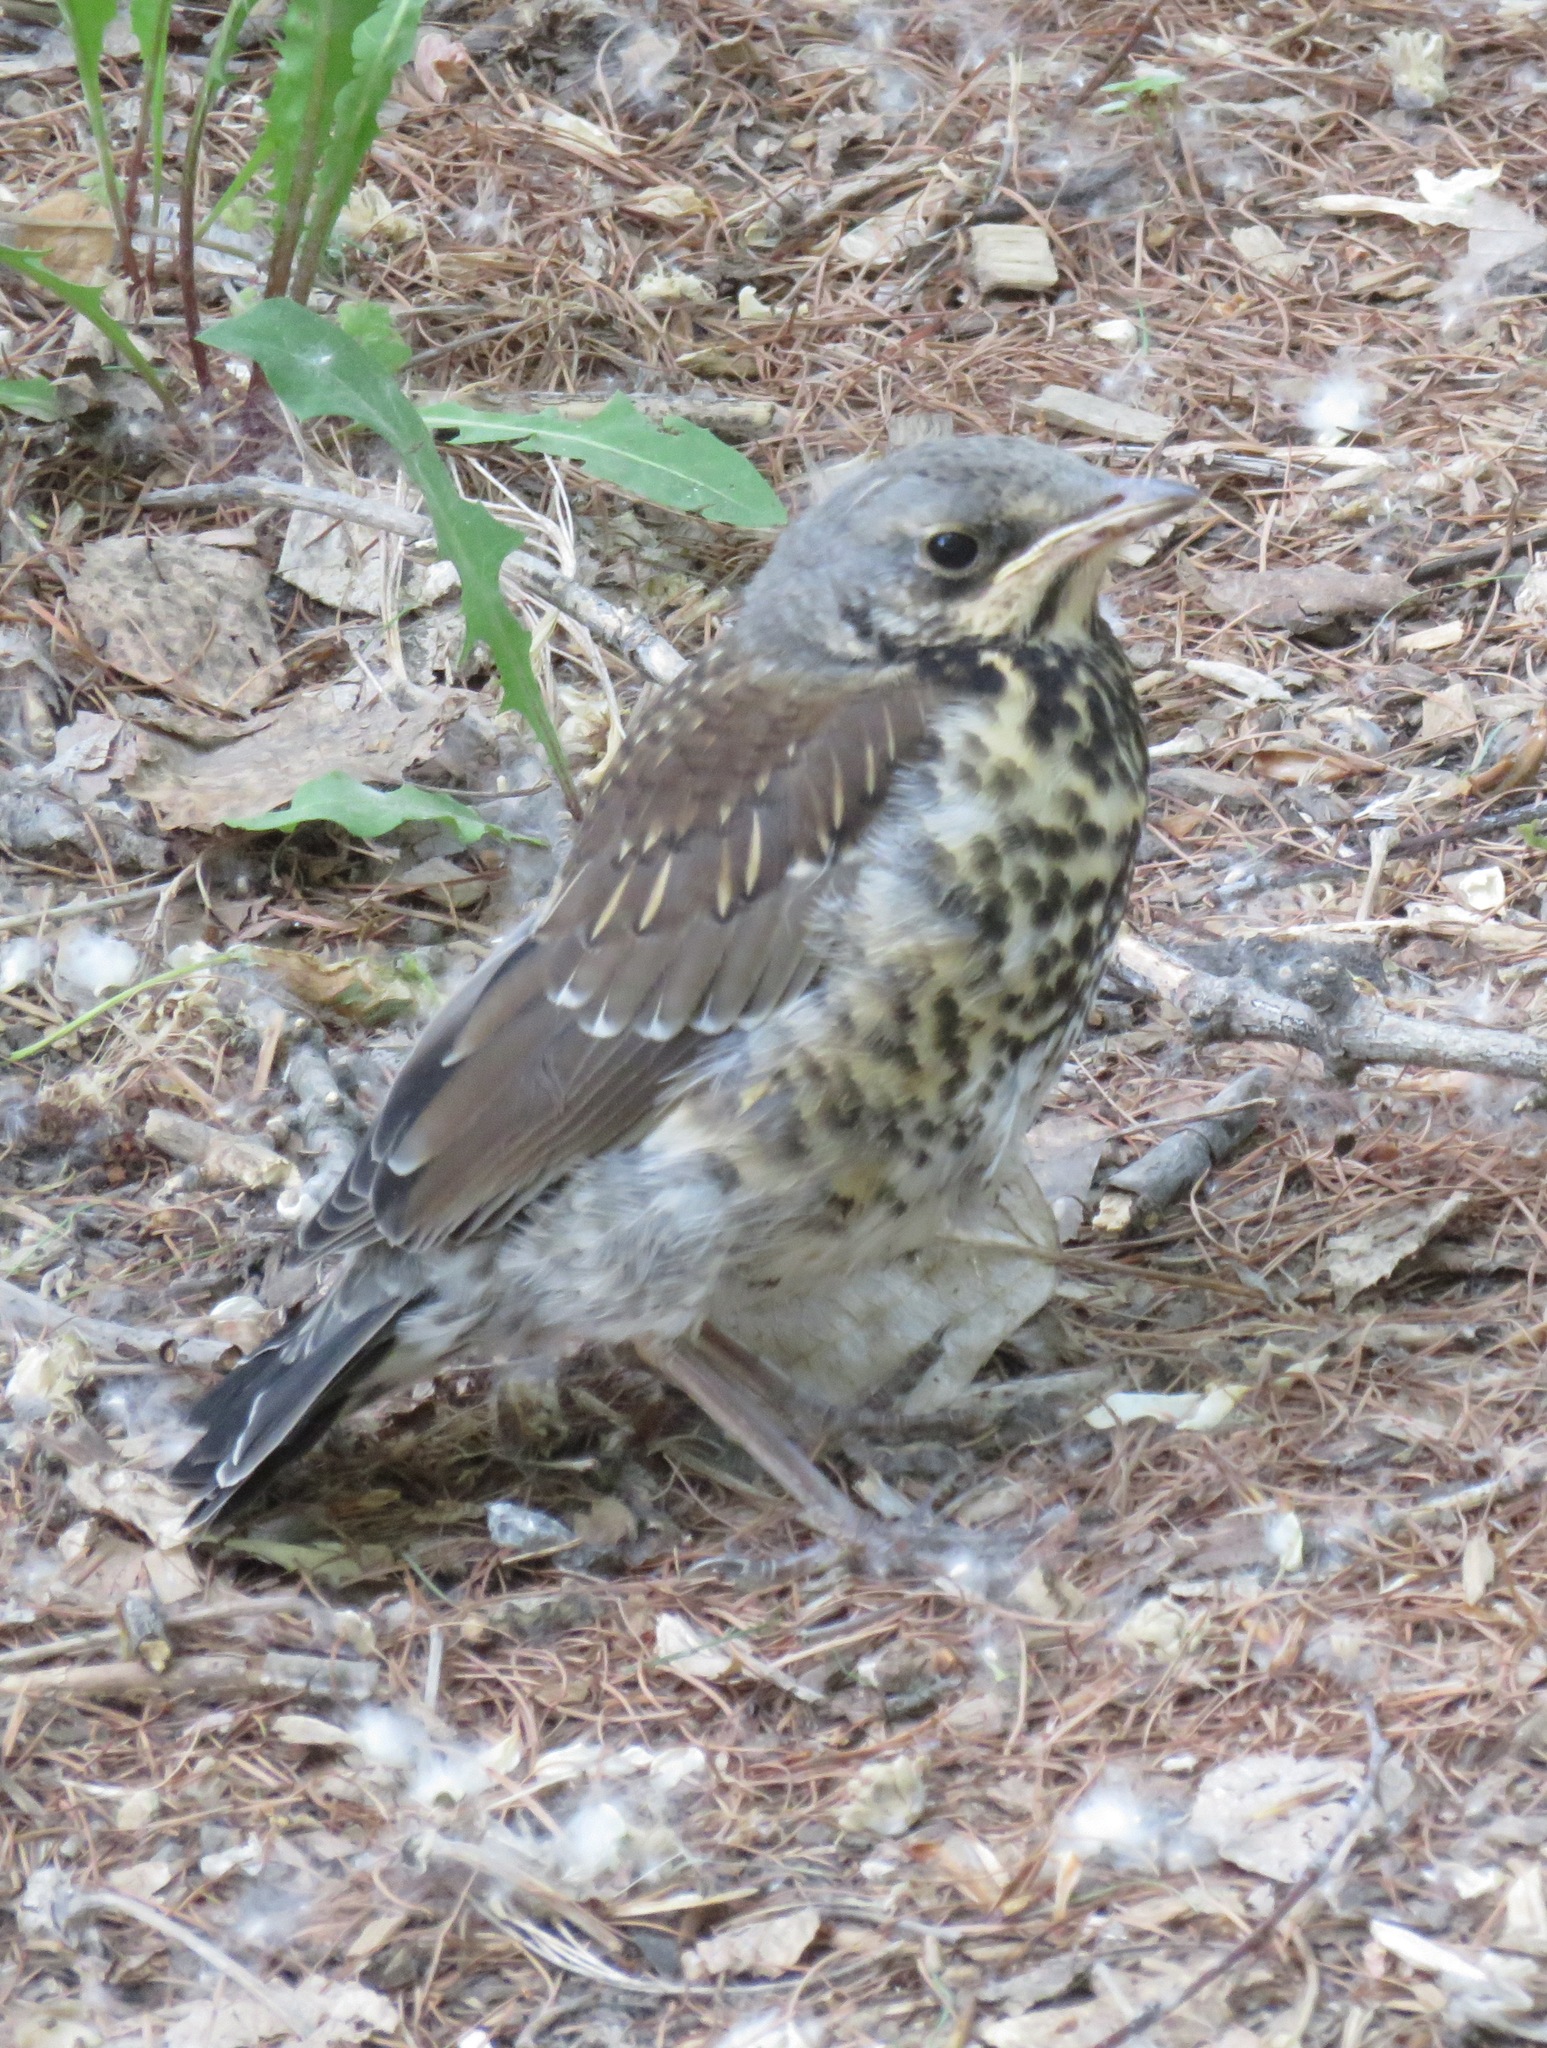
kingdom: Animalia
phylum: Chordata
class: Aves
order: Passeriformes
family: Turdidae
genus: Turdus
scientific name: Turdus pilaris
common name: Fieldfare
